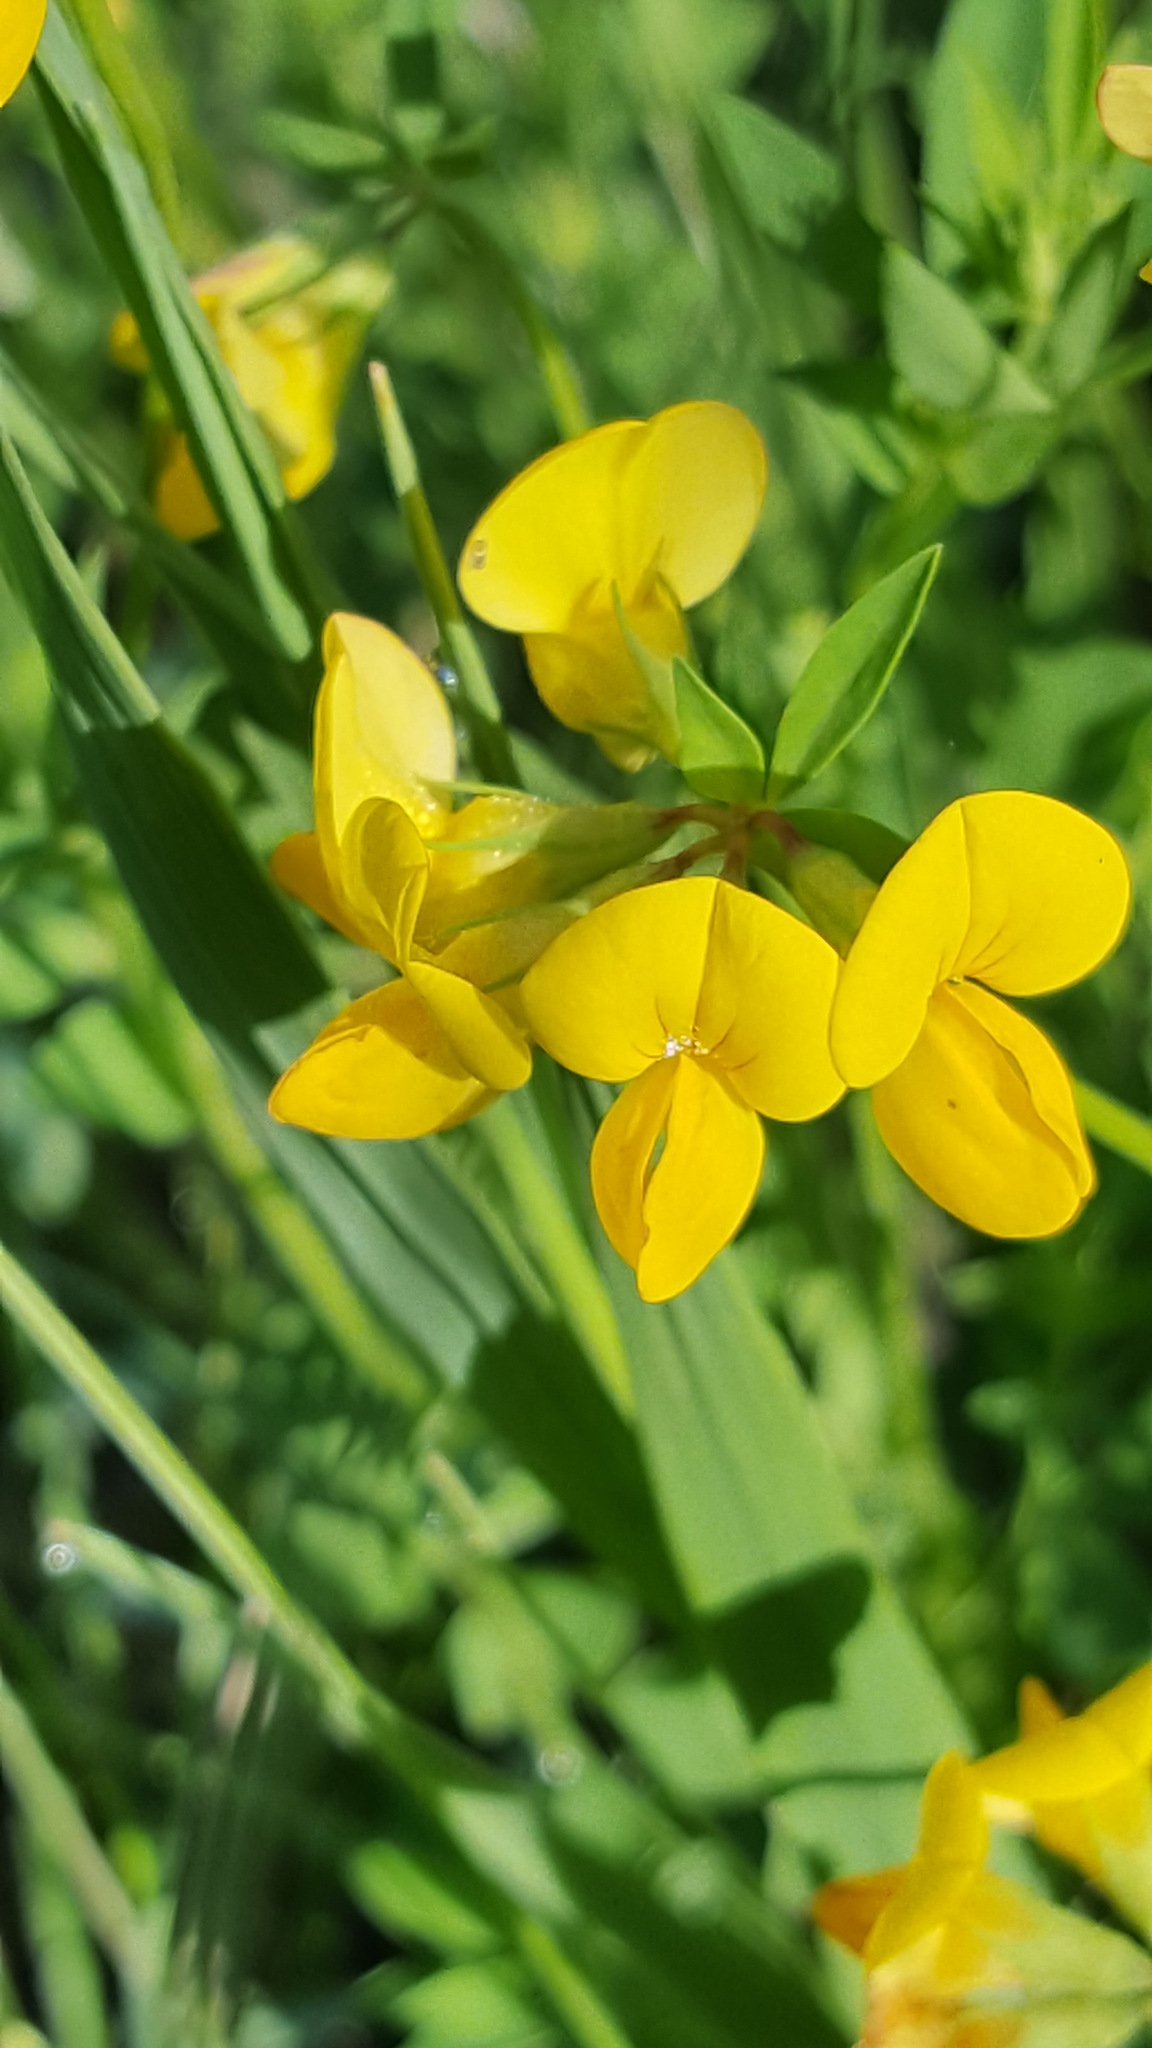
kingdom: Plantae
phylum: Tracheophyta
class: Magnoliopsida
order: Fabales
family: Fabaceae
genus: Lotus
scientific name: Lotus corniculatus
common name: Common bird's-foot-trefoil
